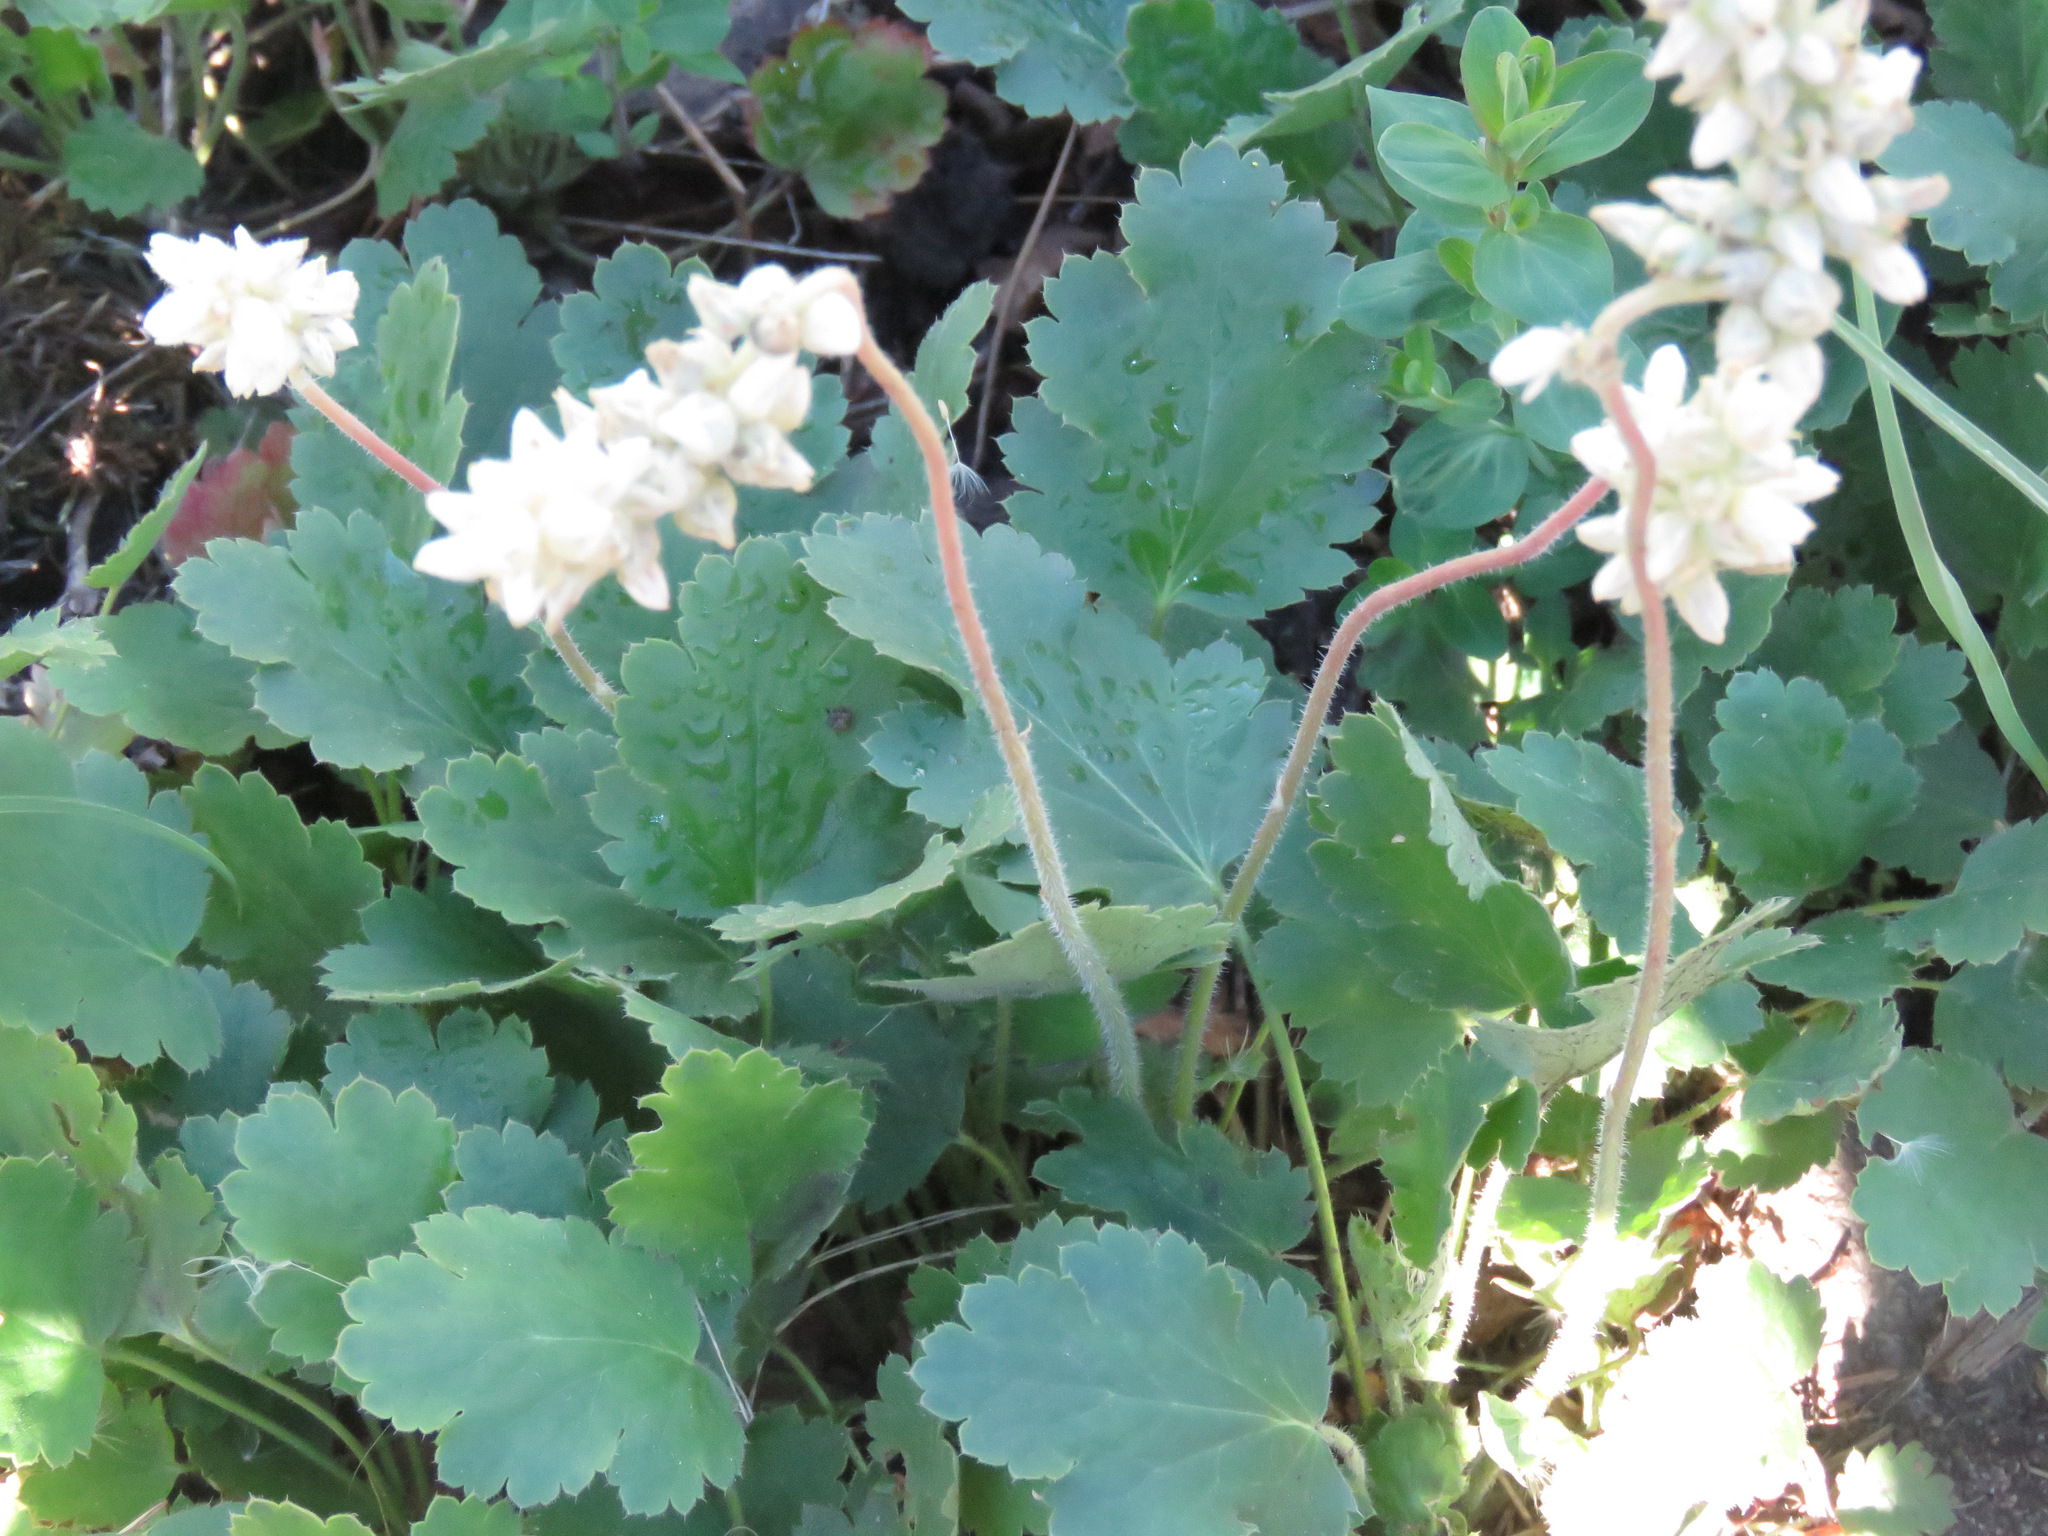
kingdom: Plantae
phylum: Tracheophyta
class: Magnoliopsida
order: Saxifragales
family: Saxifragaceae
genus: Heuchera
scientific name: Heuchera cylindrica
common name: Mat alumroot
